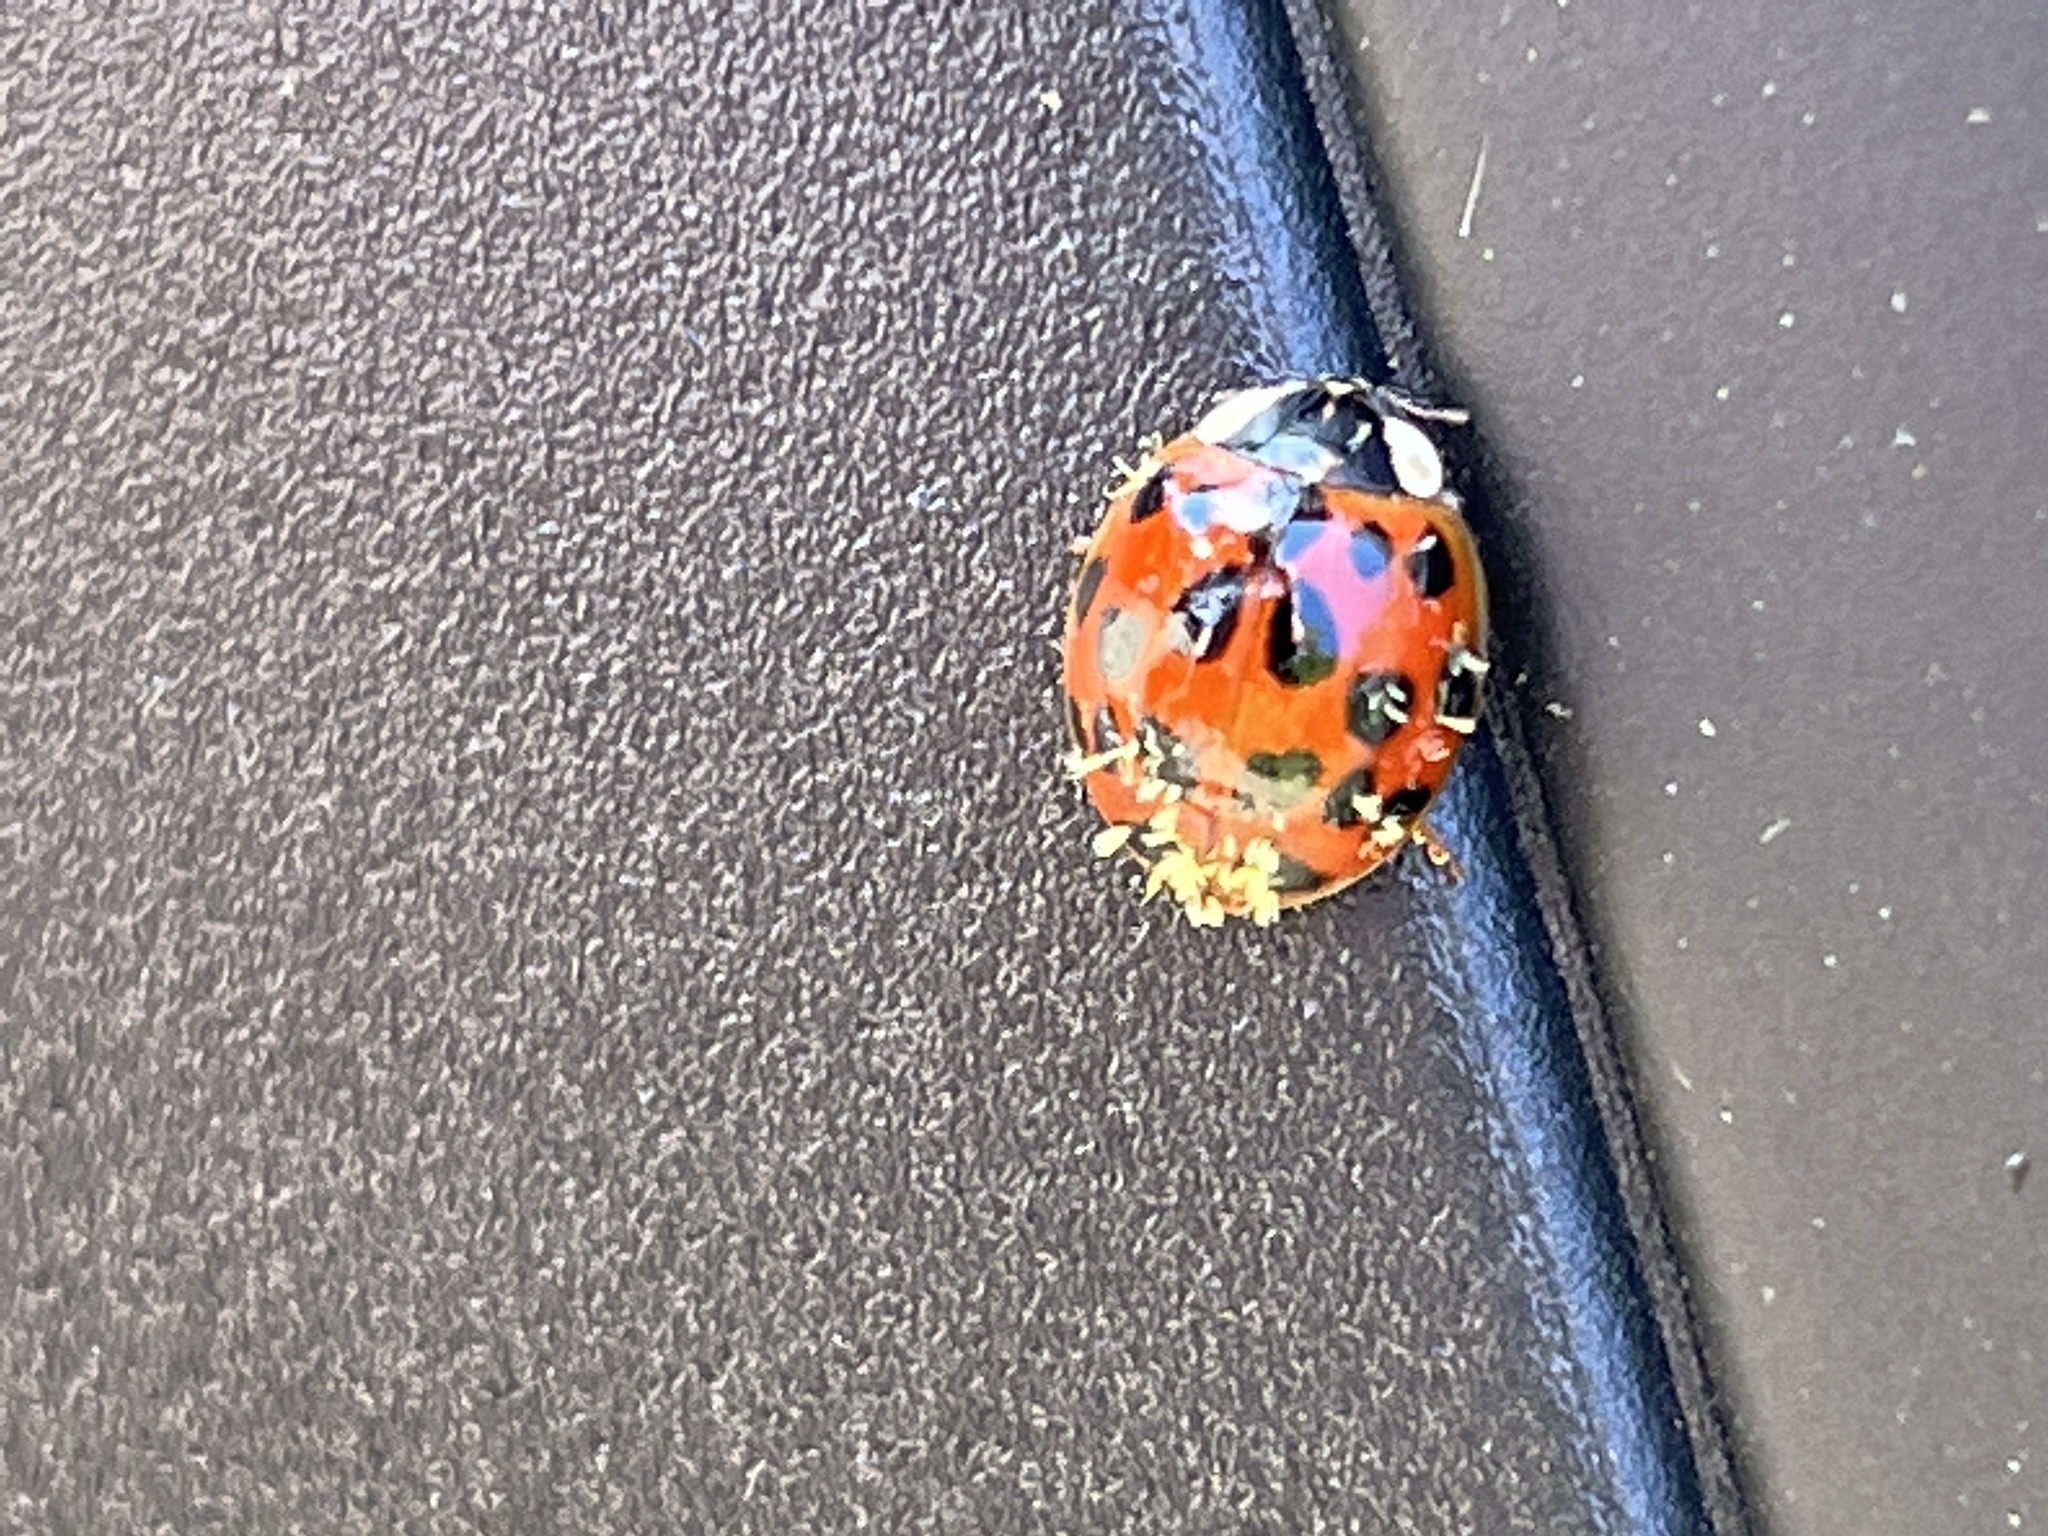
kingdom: Fungi
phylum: Ascomycota
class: Laboulbeniomycetes
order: Laboulbeniales
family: Laboulbeniaceae
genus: Hesperomyces
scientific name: Hesperomyces harmoniae
